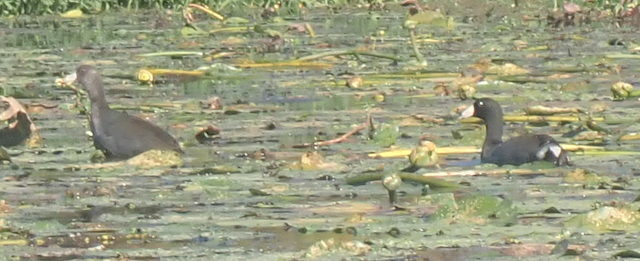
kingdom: Animalia
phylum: Chordata
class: Aves
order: Gruiformes
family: Rallidae
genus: Fulica
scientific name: Fulica americana
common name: American coot
